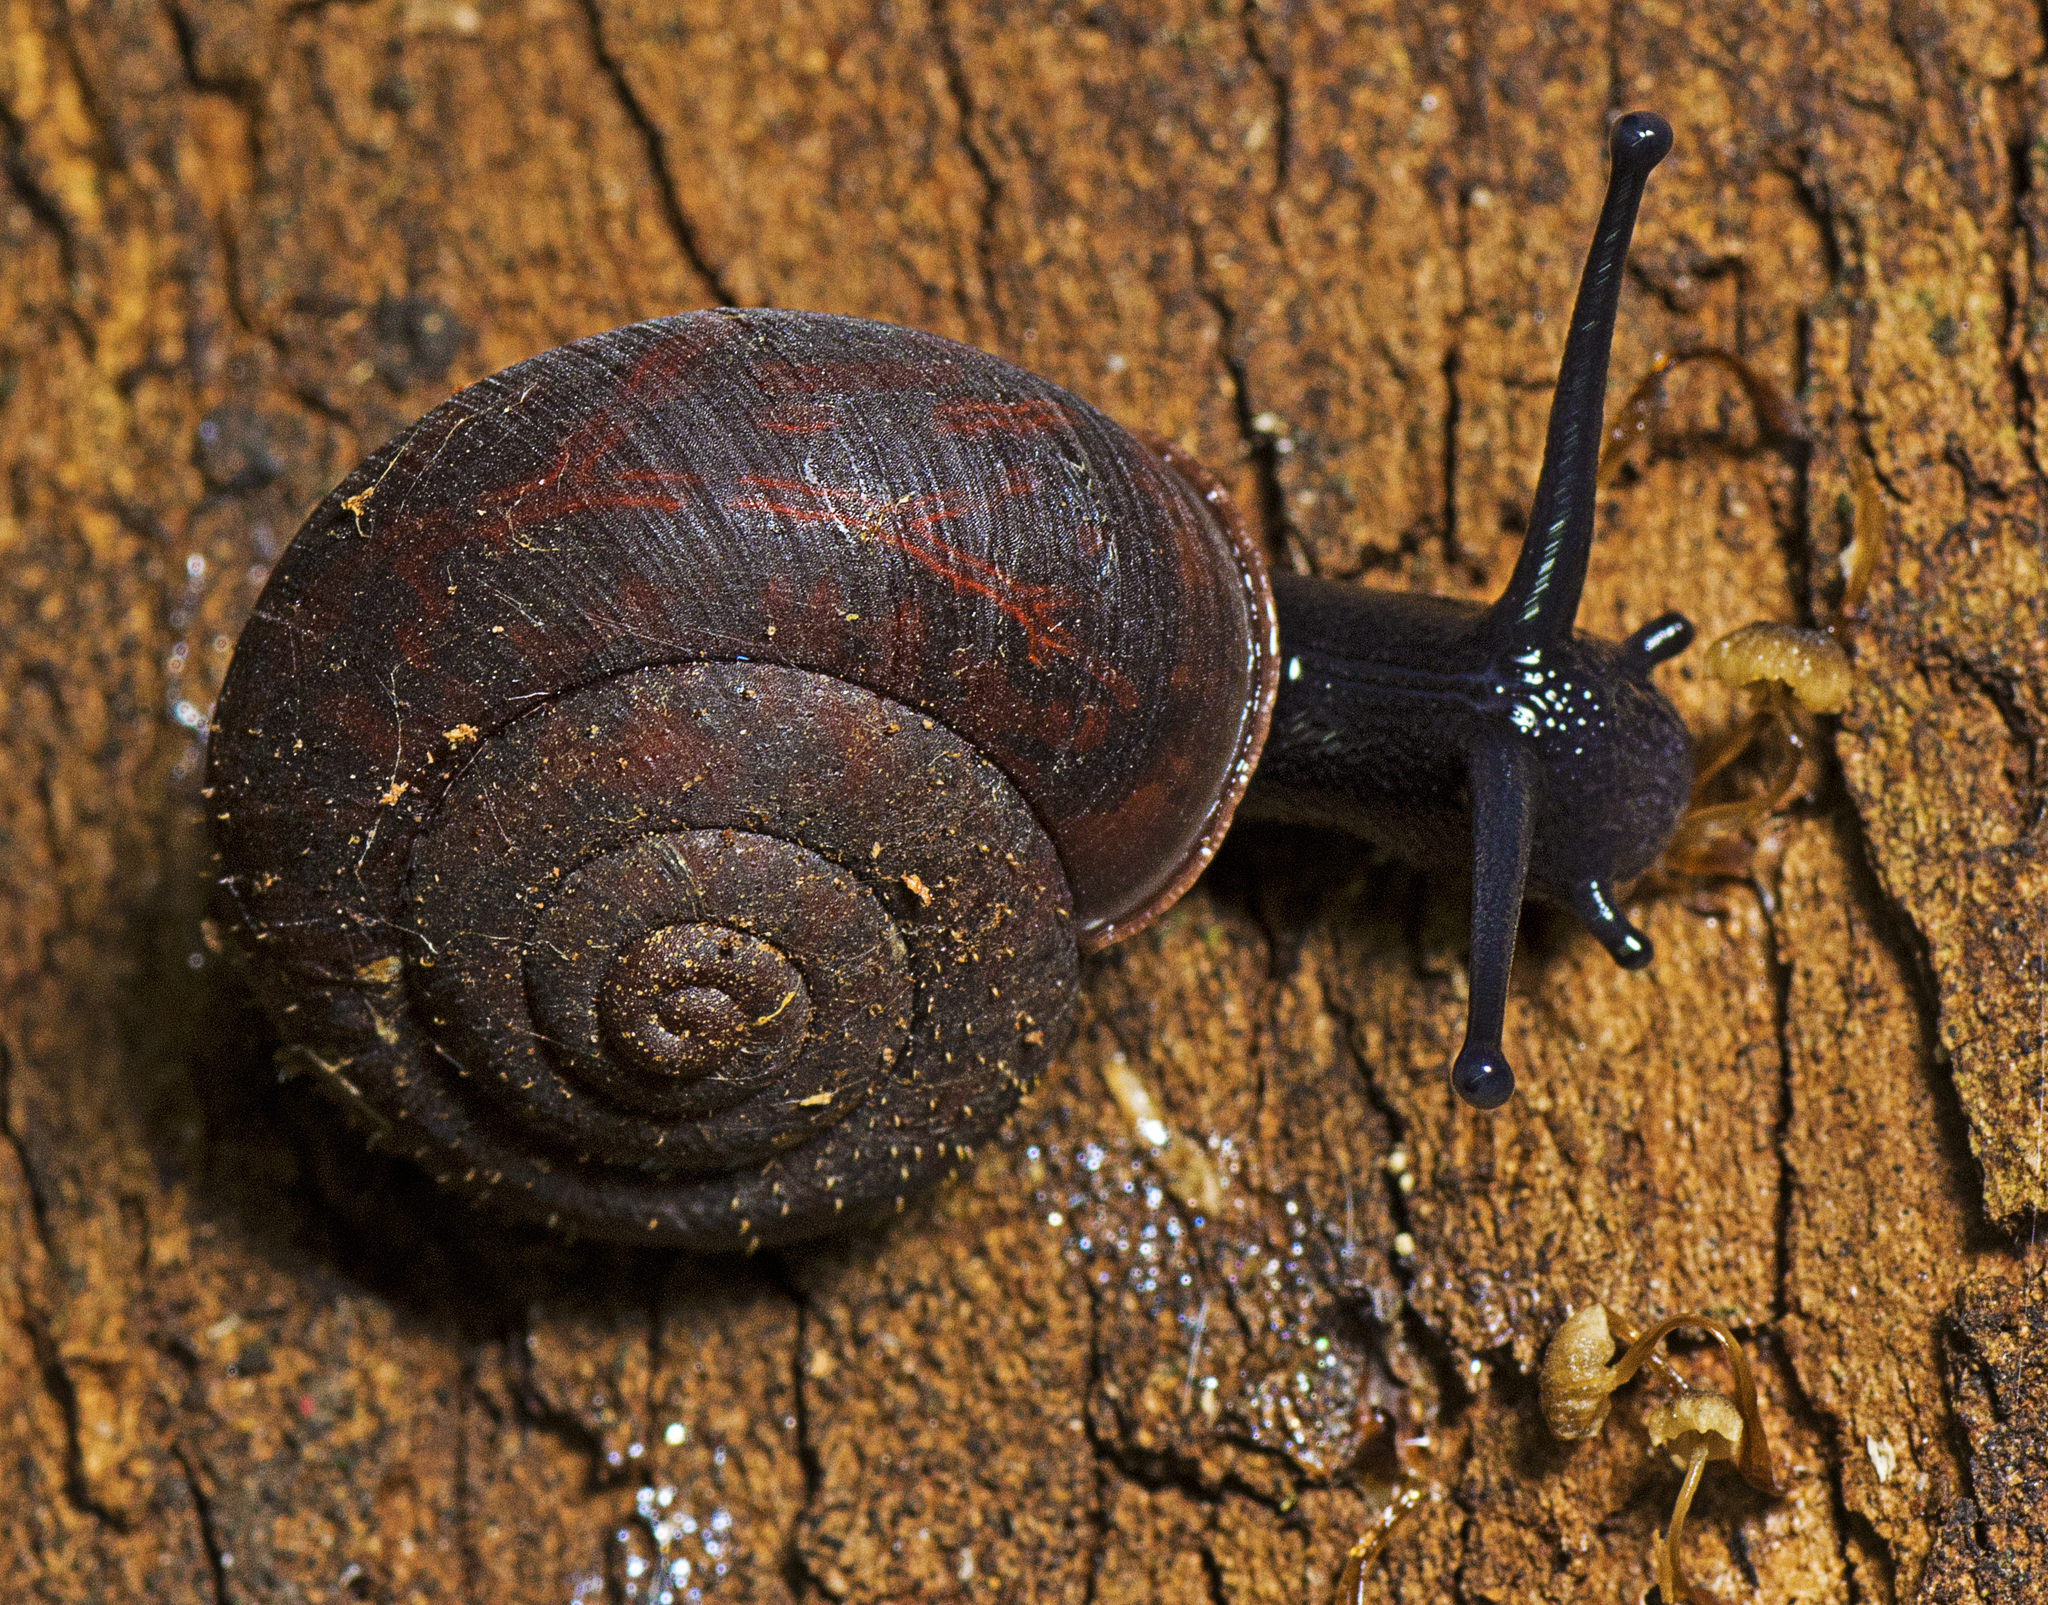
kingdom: Animalia
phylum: Mollusca
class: Gastropoda
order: Stylommatophora
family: Camaenidae
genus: Ramogenia
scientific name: Ramogenia challengeri
